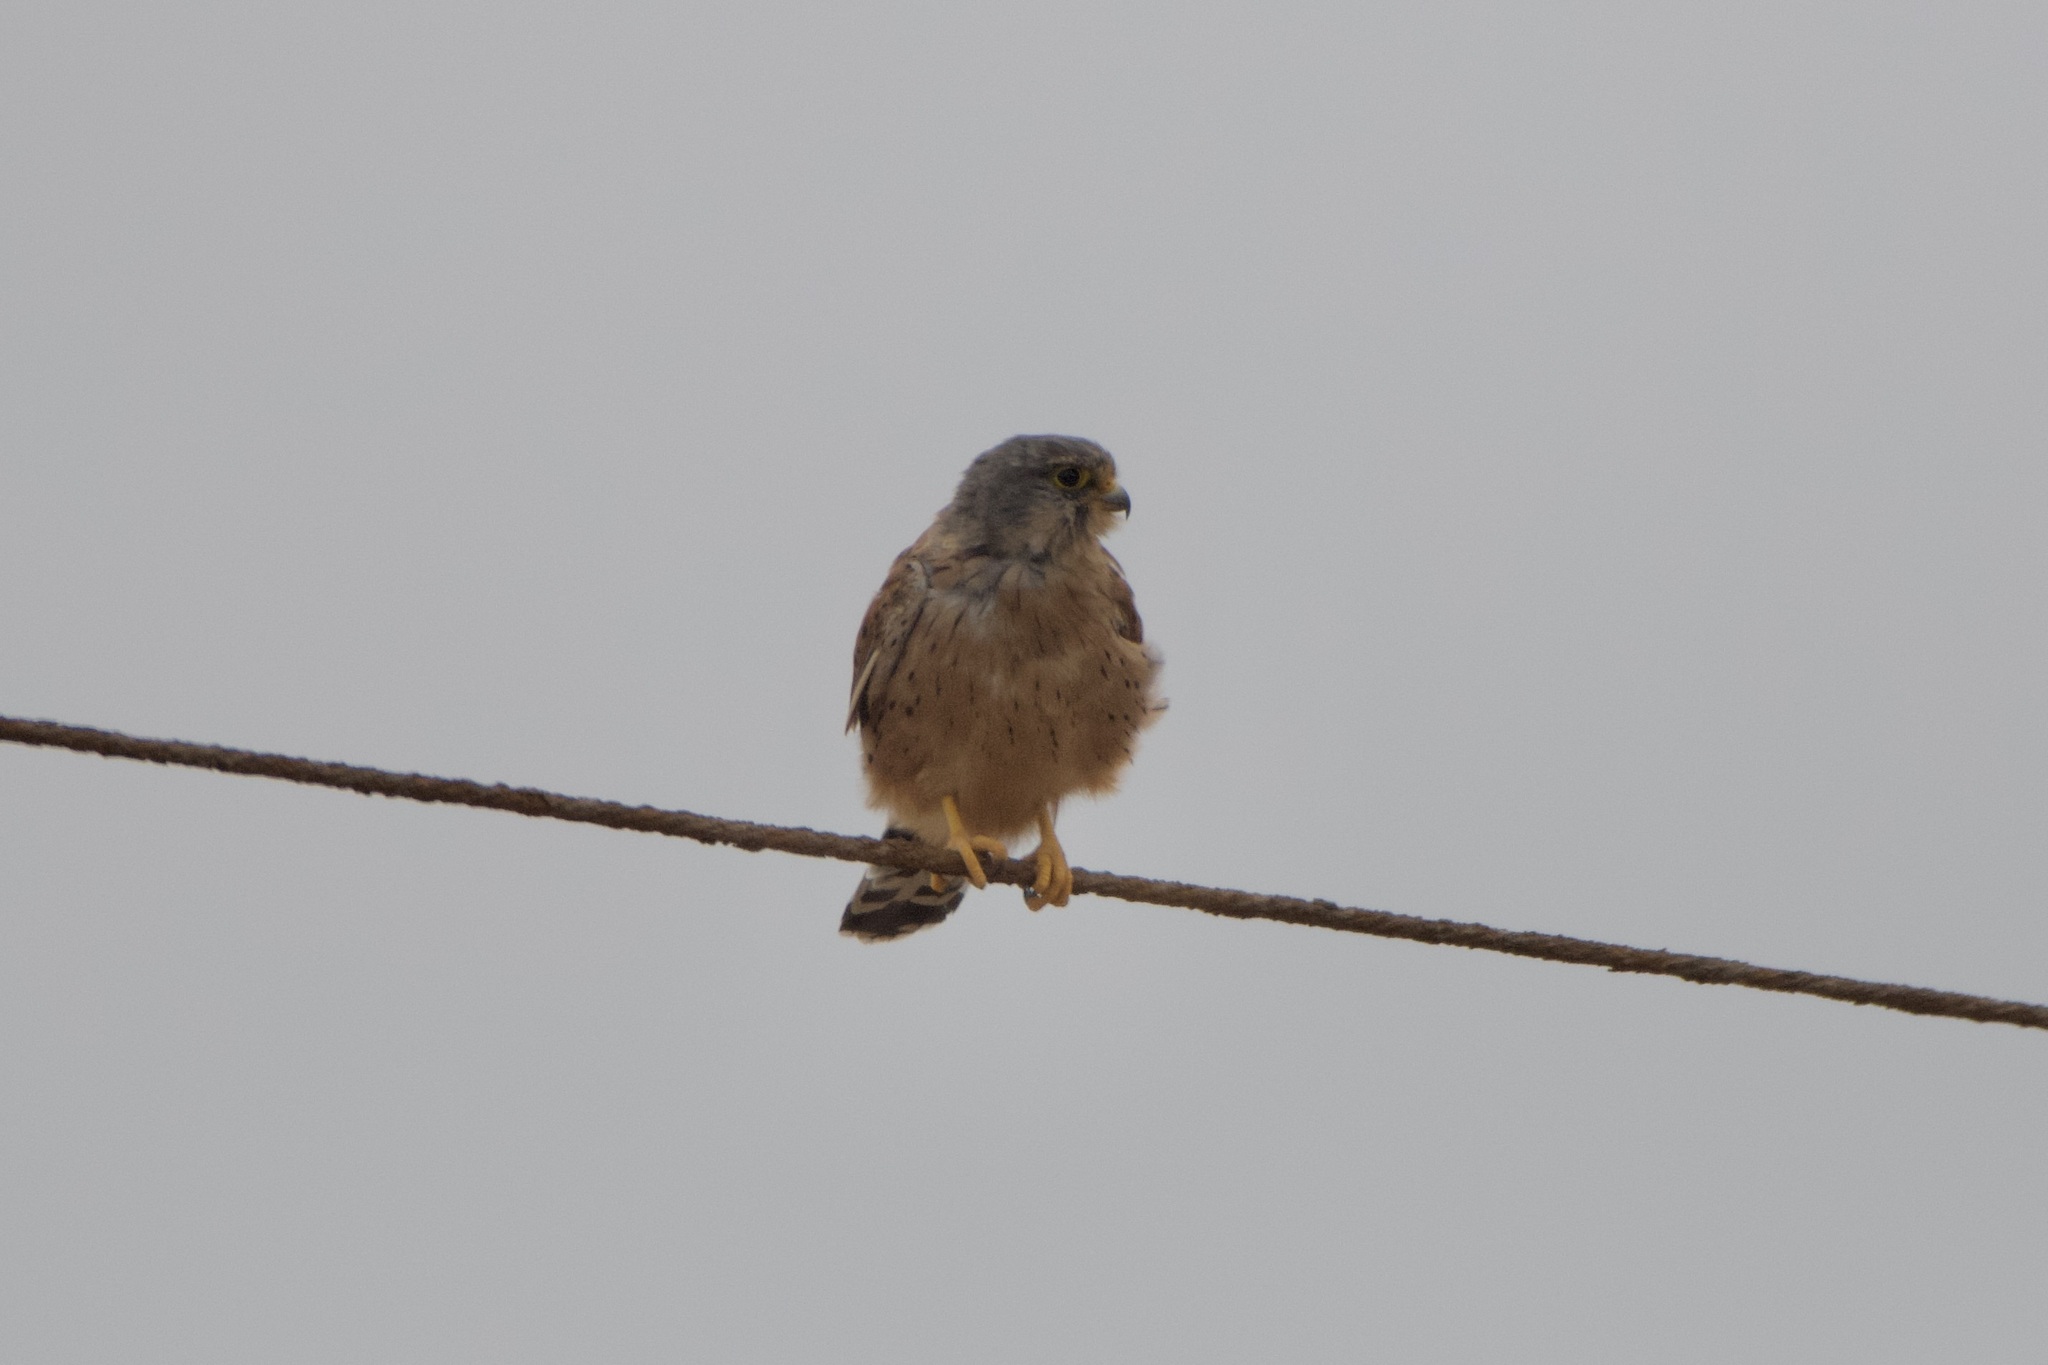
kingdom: Animalia
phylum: Chordata
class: Aves
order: Falconiformes
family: Falconidae
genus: Falco
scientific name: Falco tinnunculus
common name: Common kestrel
